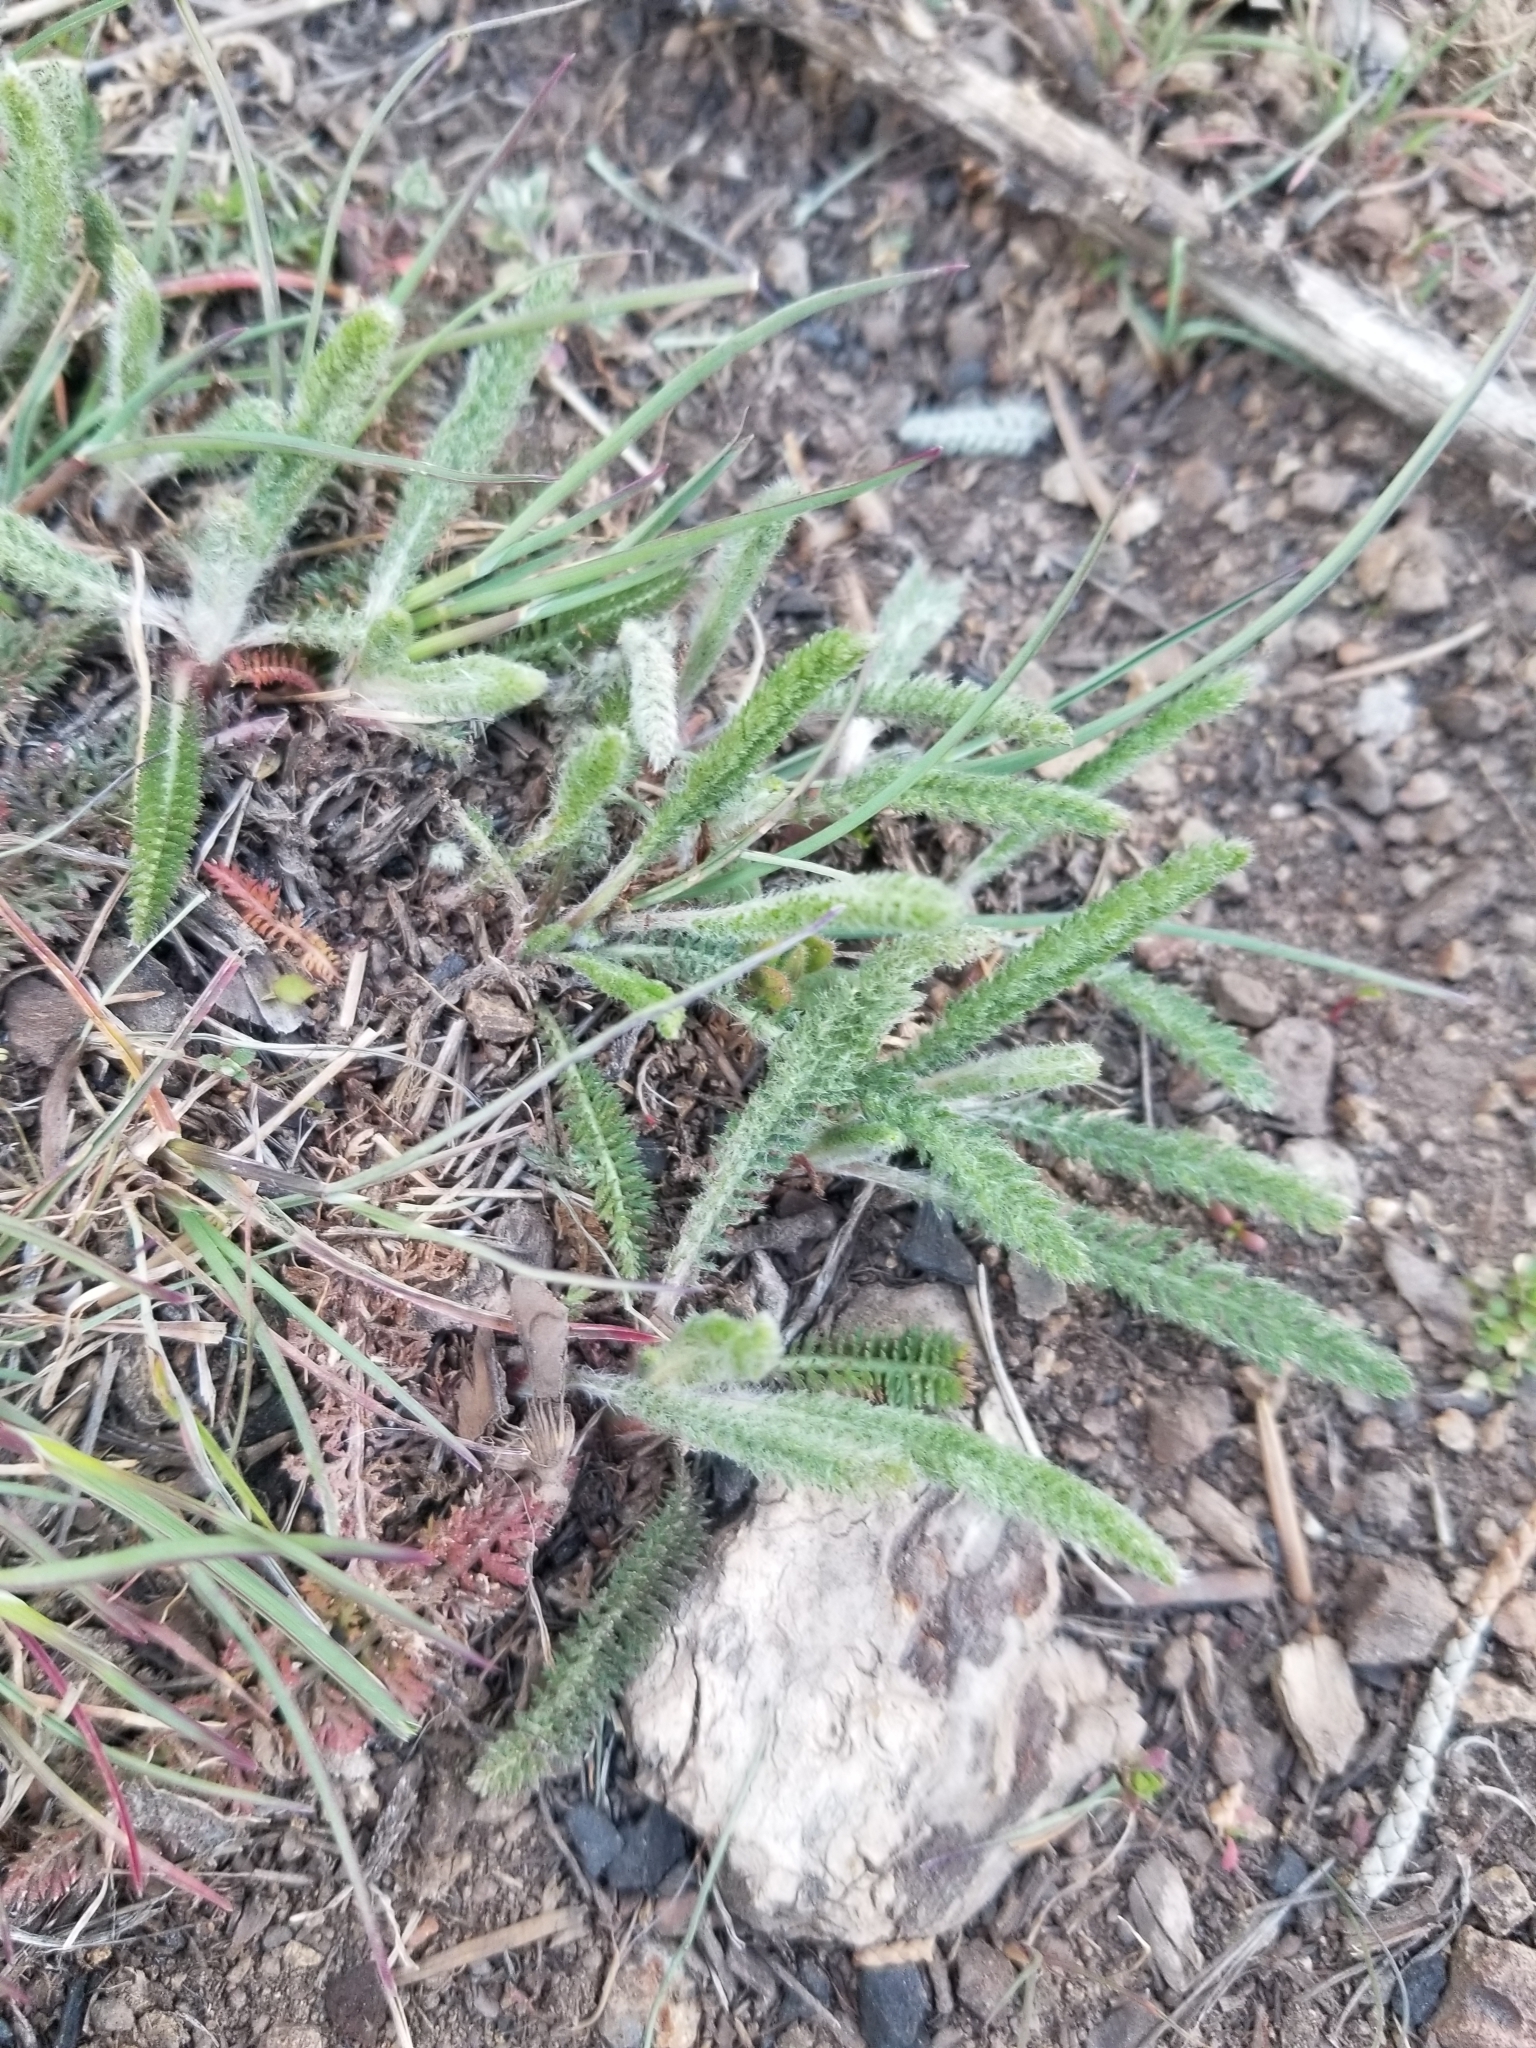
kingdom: Plantae
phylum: Tracheophyta
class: Magnoliopsida
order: Asterales
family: Asteraceae
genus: Achillea
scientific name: Achillea millefolium
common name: Yarrow
